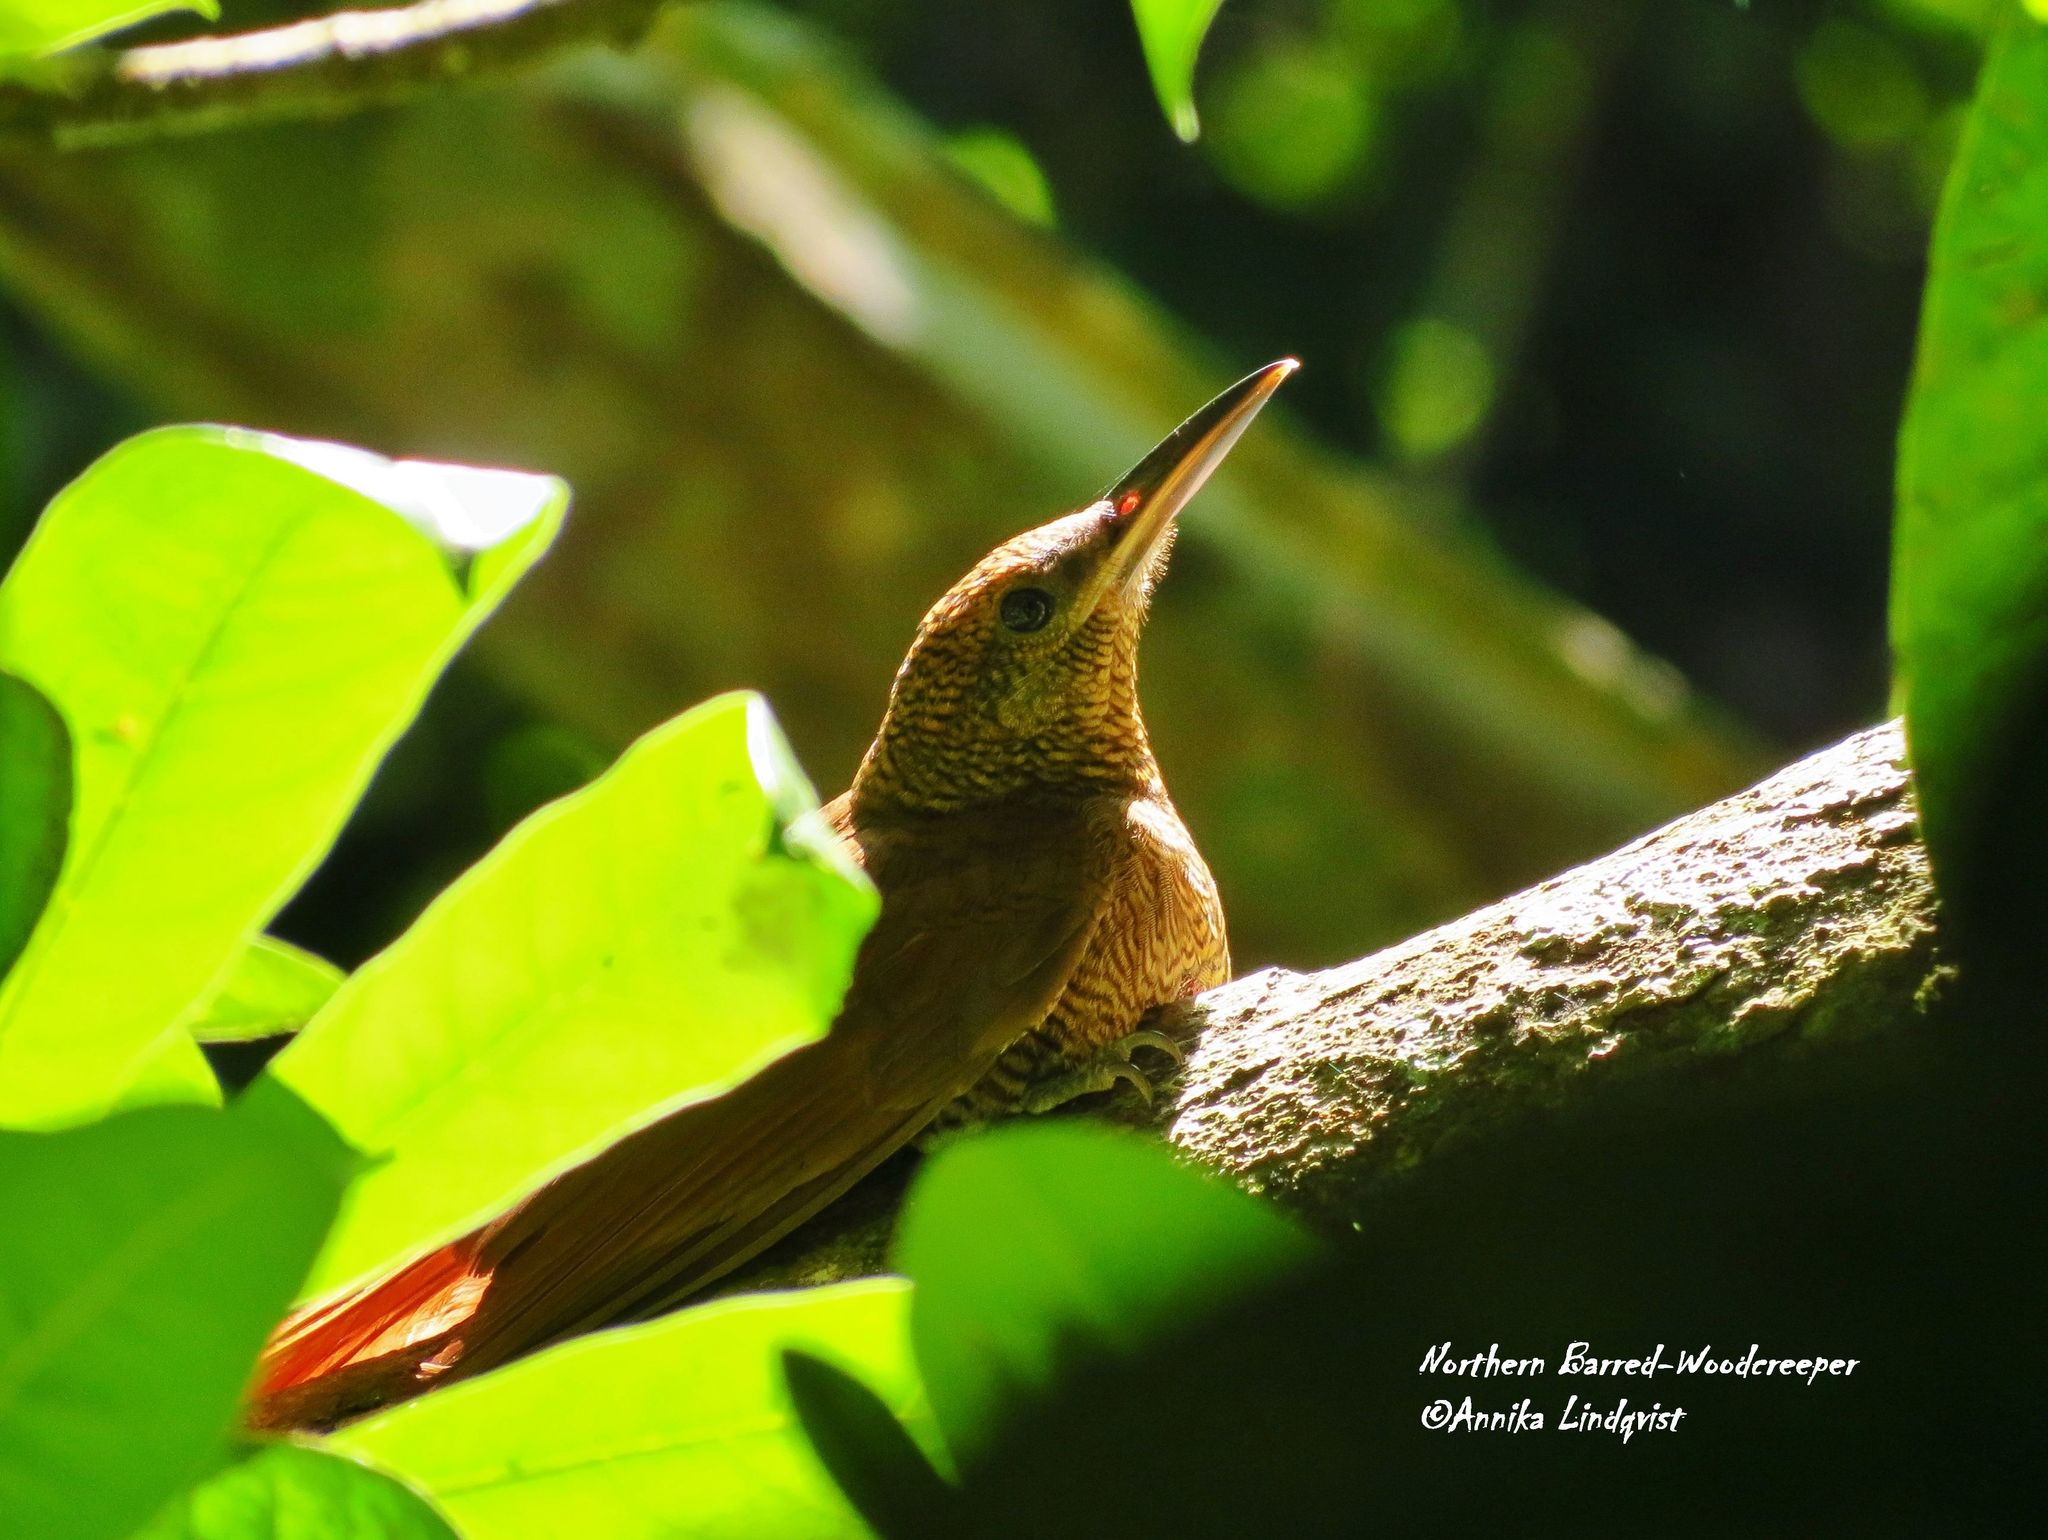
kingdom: Animalia
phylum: Chordata
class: Aves
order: Passeriformes
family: Furnariidae
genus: Dendrocolaptes
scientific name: Dendrocolaptes sanctithomae
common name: Northern barred-woodcreeper
